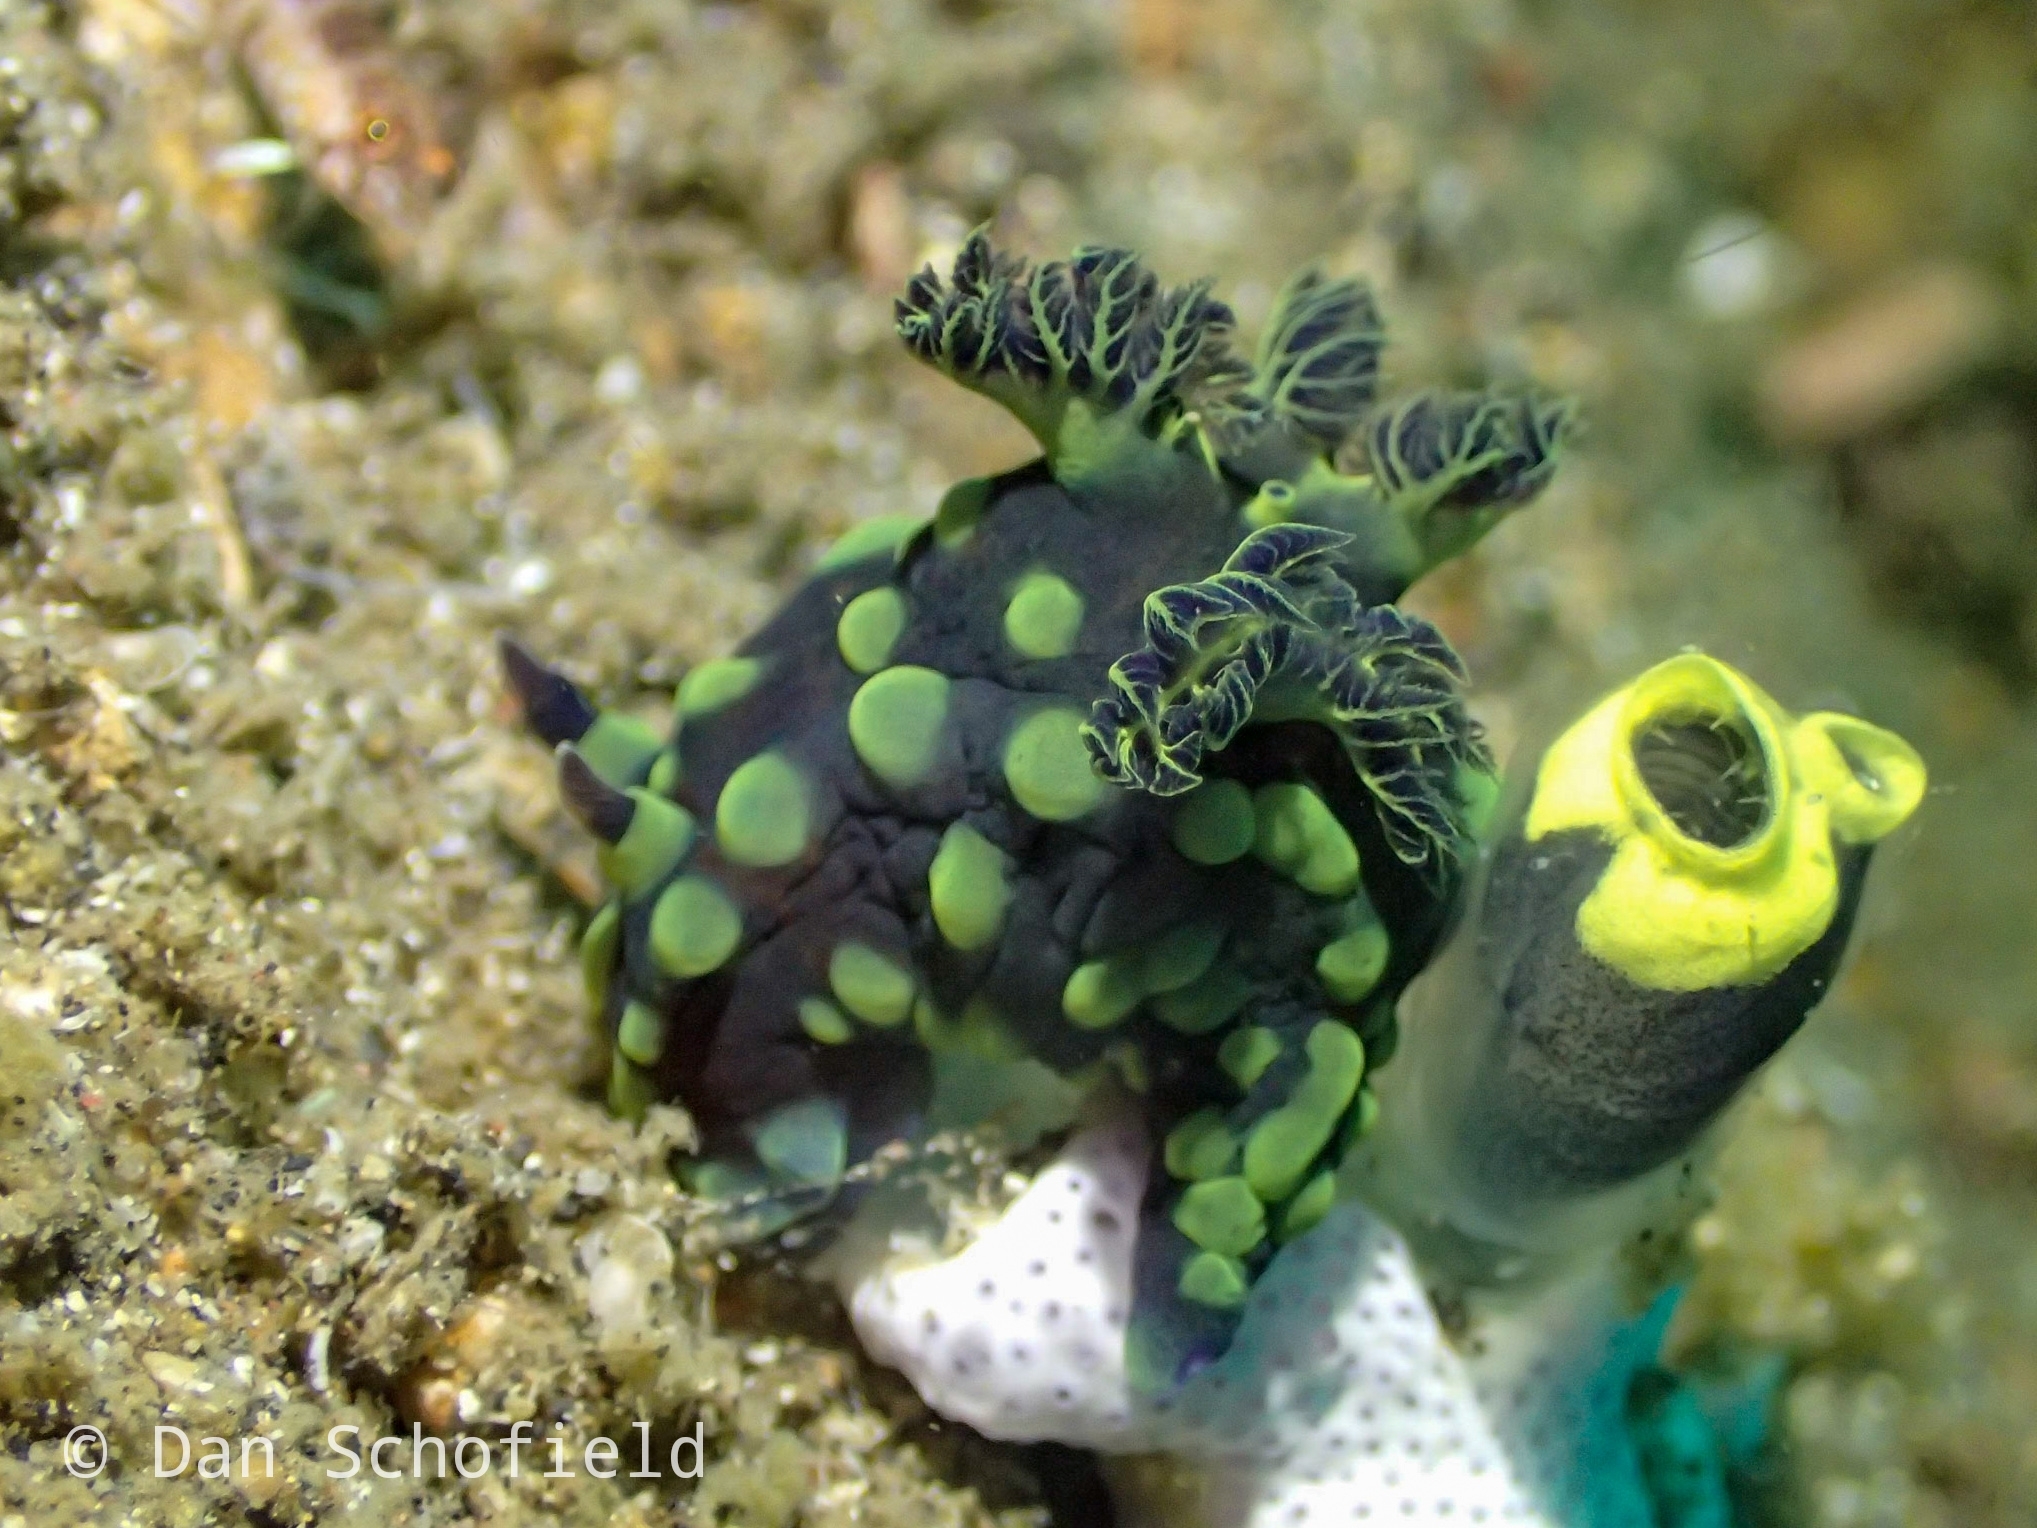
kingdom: Animalia
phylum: Mollusca
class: Gastropoda
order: Nudibranchia
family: Polyceridae
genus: Nembrotha
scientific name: Nembrotha cristata
